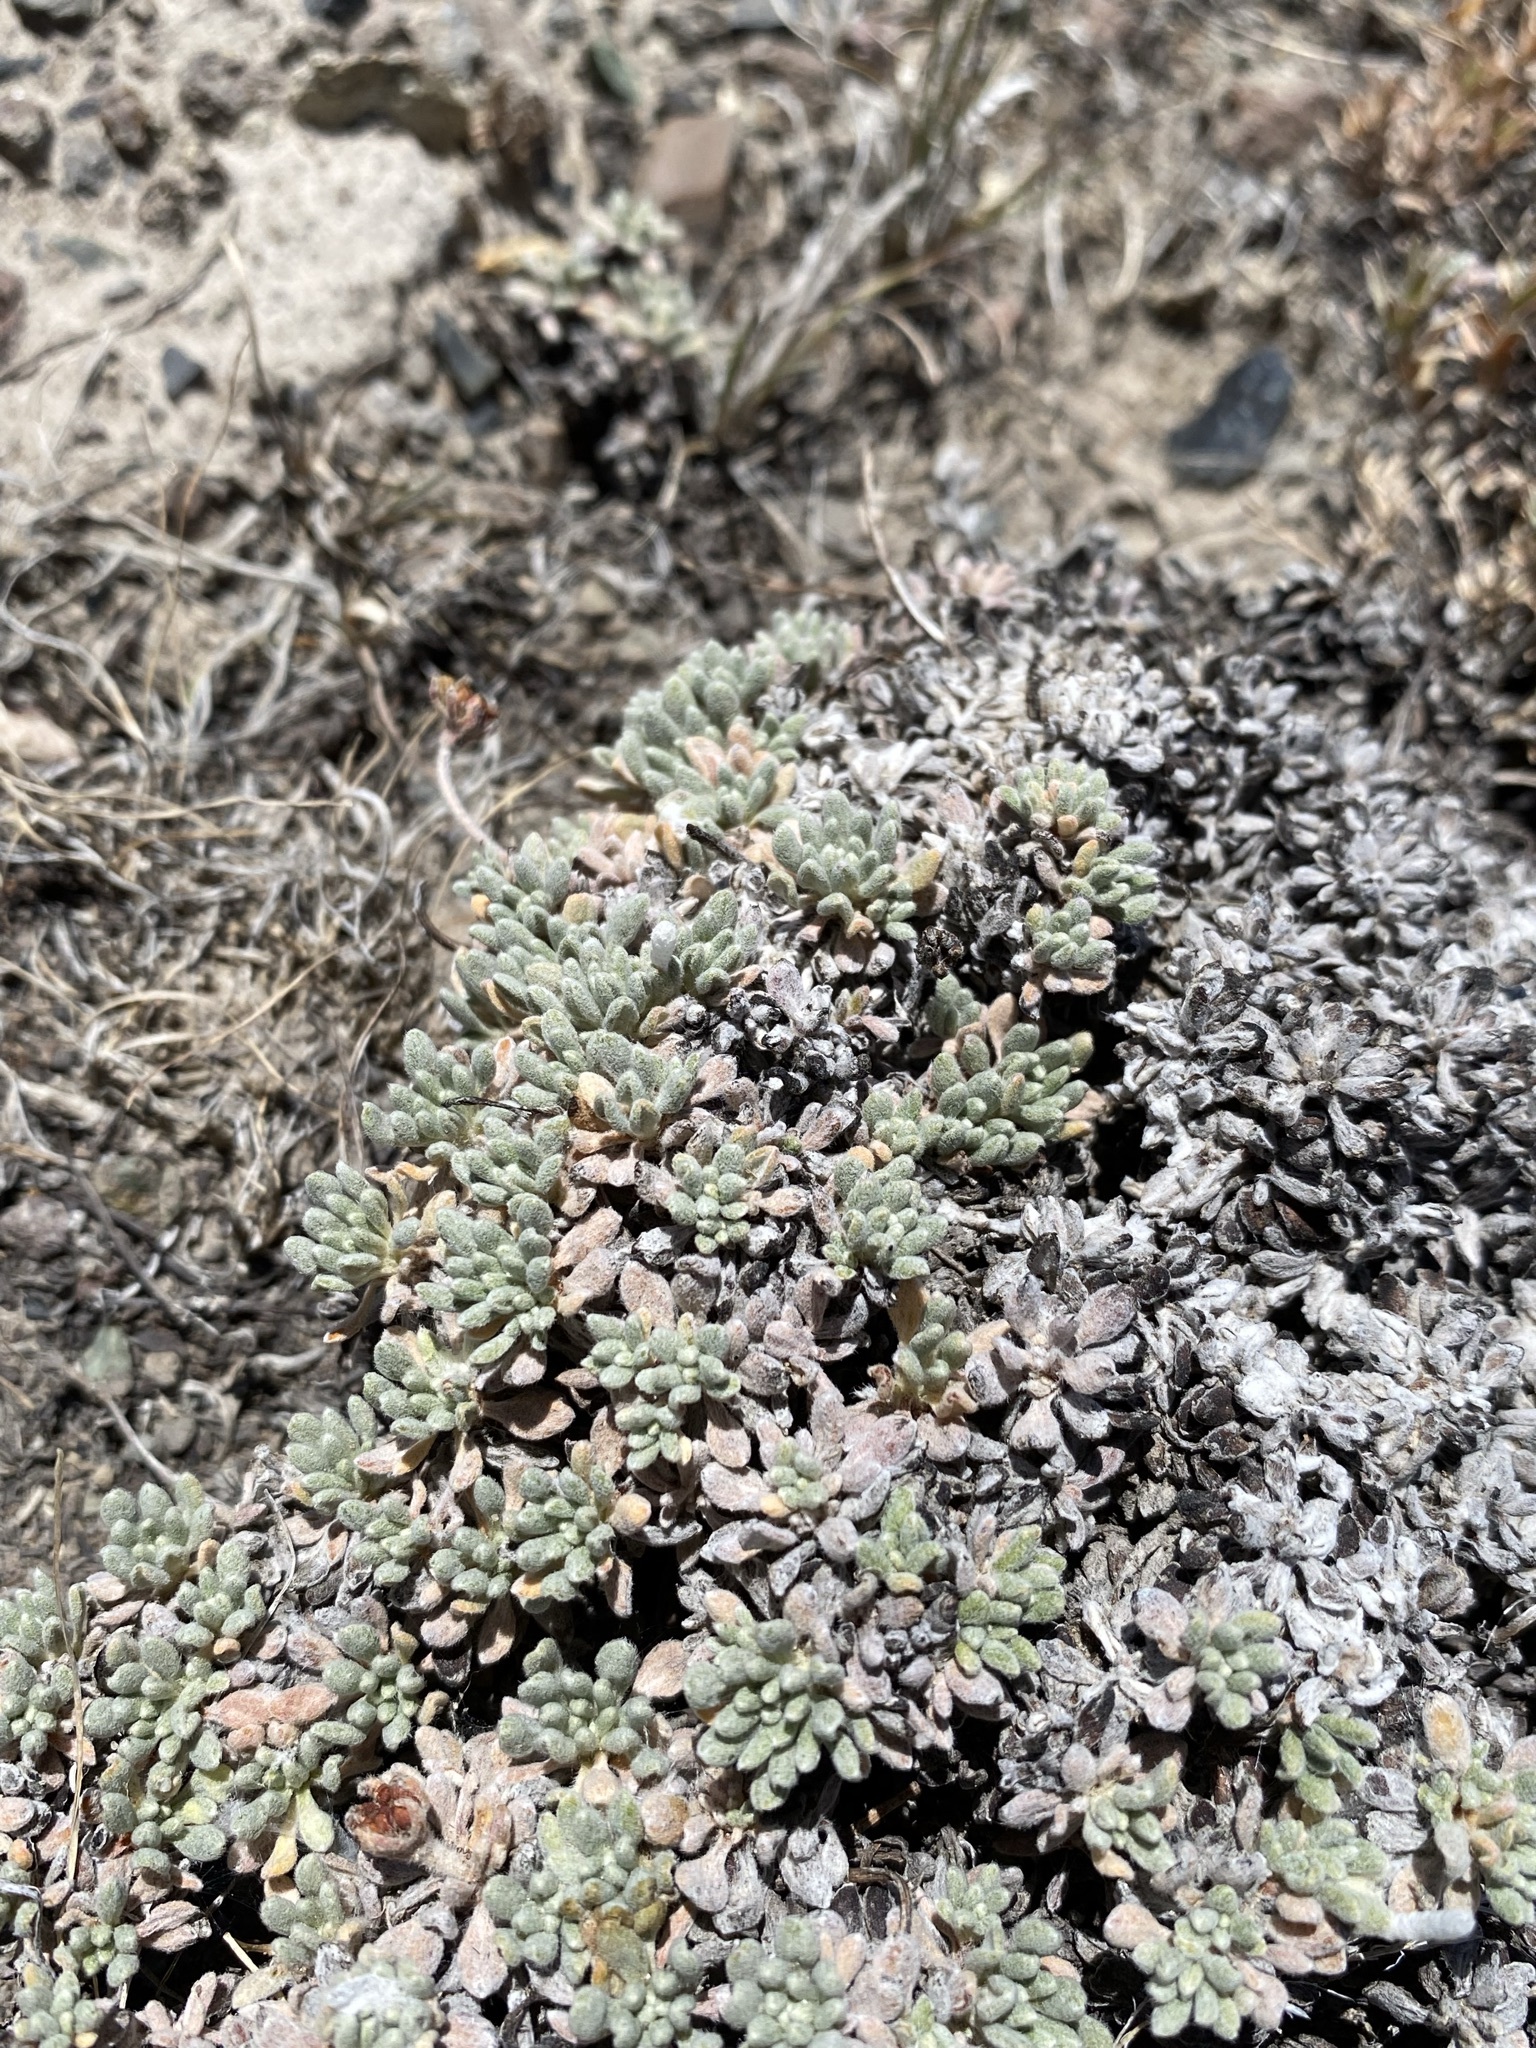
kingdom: Plantae
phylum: Tracheophyta
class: Magnoliopsida
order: Caryophyllales
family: Polygonaceae
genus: Eriogonum
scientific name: Eriogonum caespitosum
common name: Matted wild buckwheat
